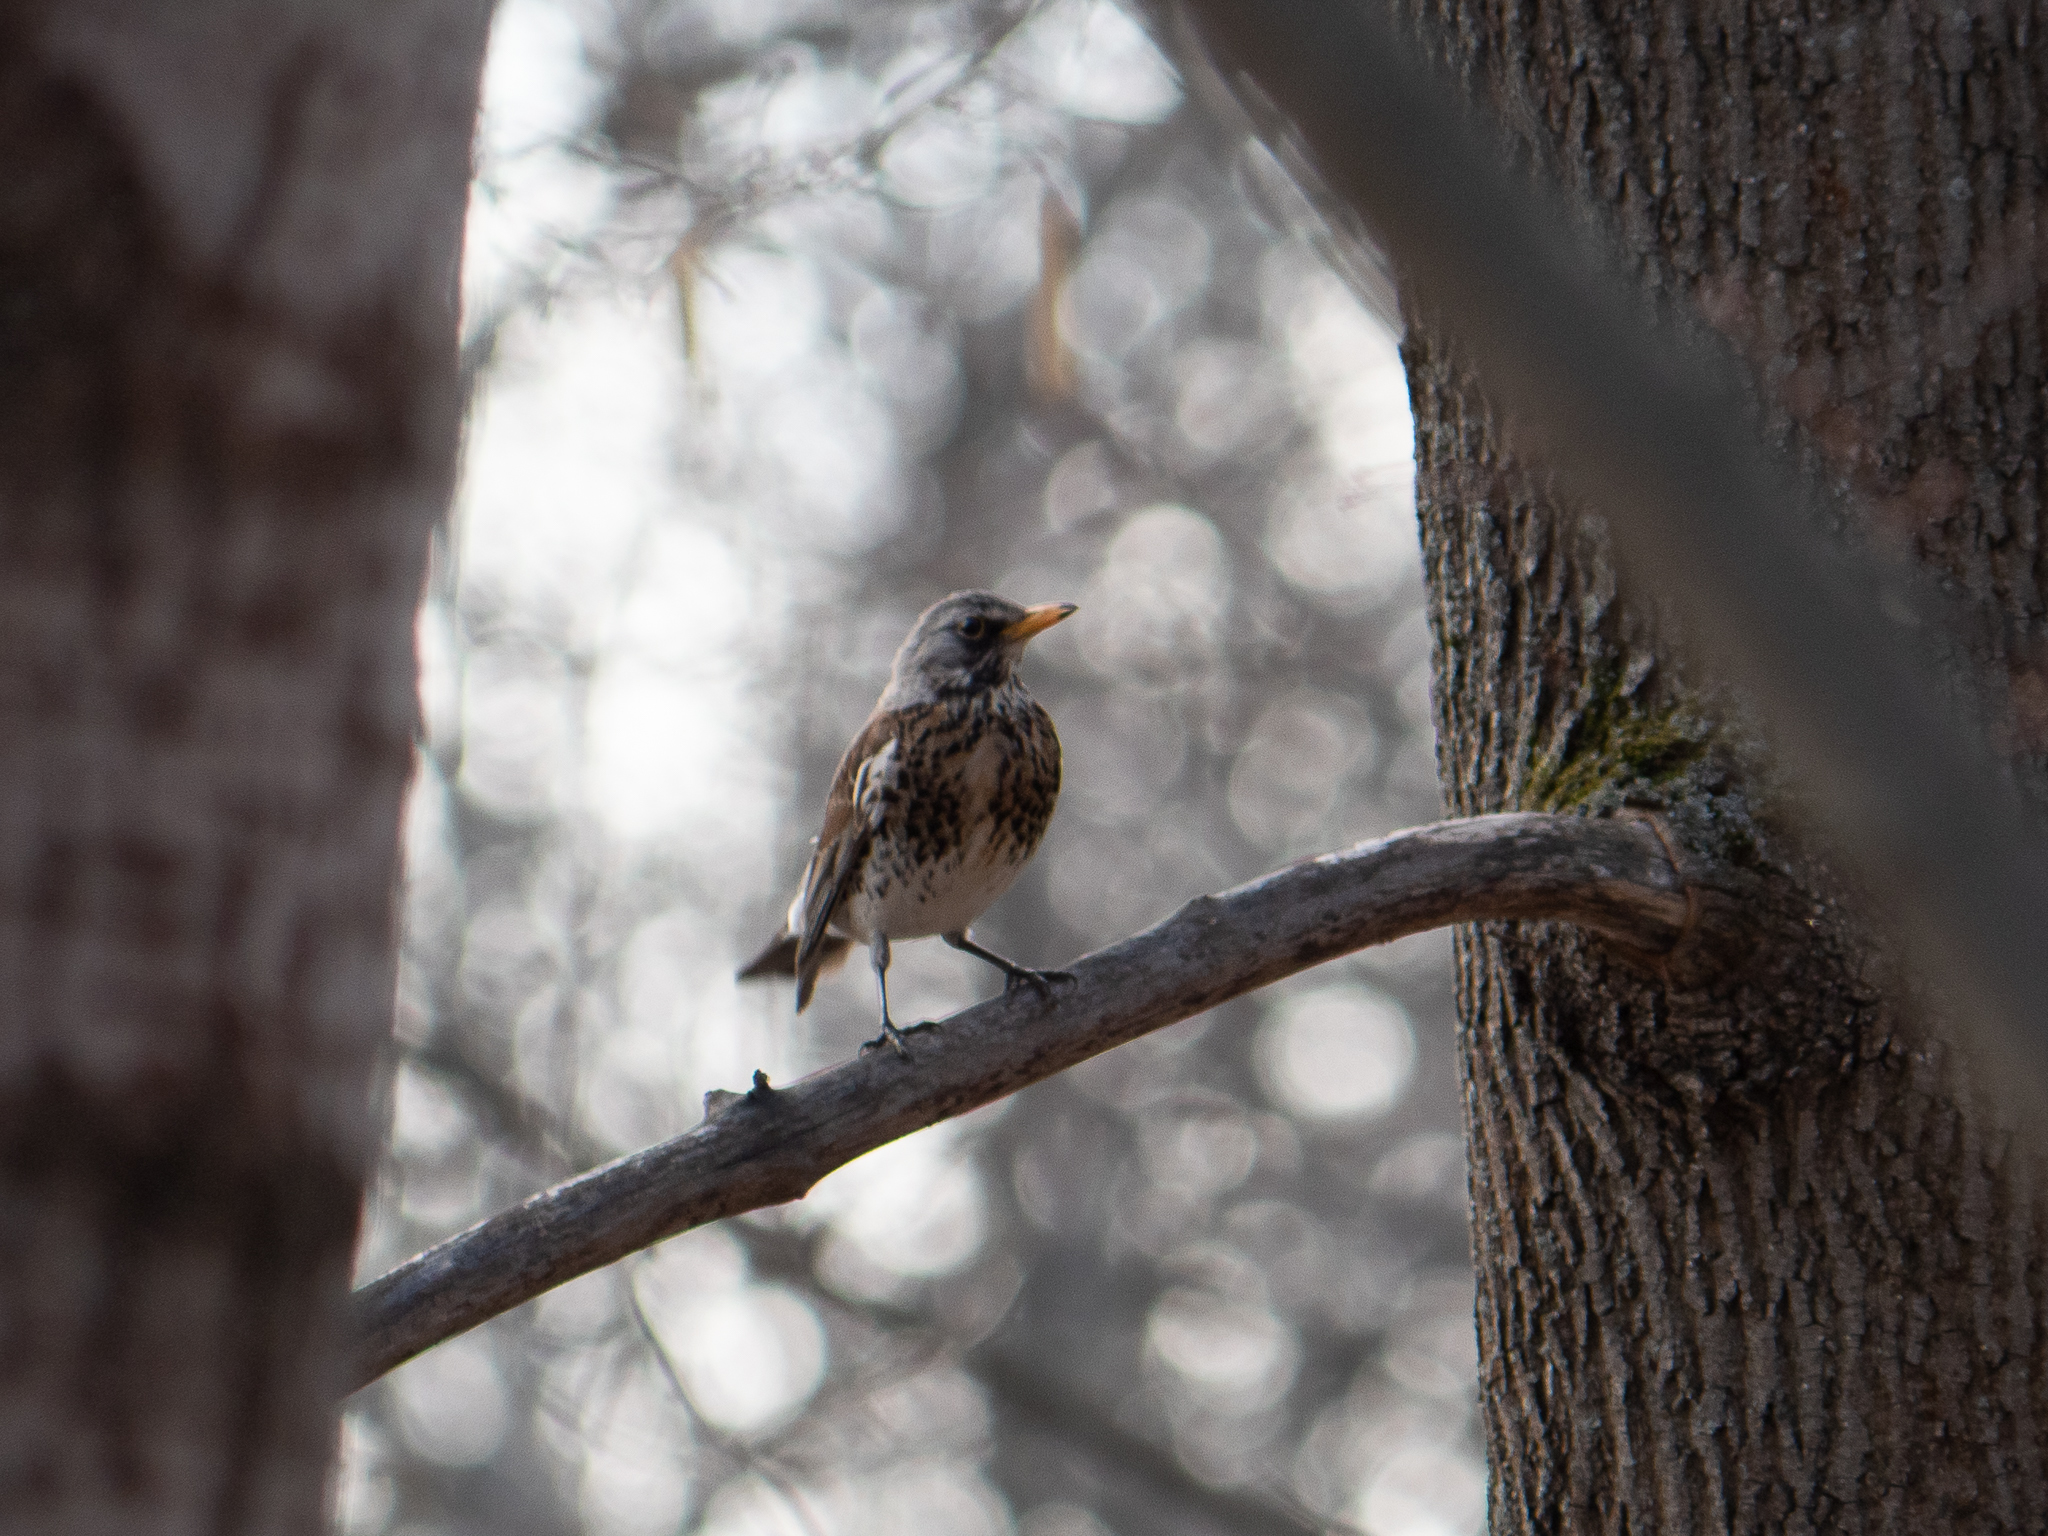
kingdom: Animalia
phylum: Chordata
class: Aves
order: Passeriformes
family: Turdidae
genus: Turdus
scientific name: Turdus pilaris
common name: Fieldfare
